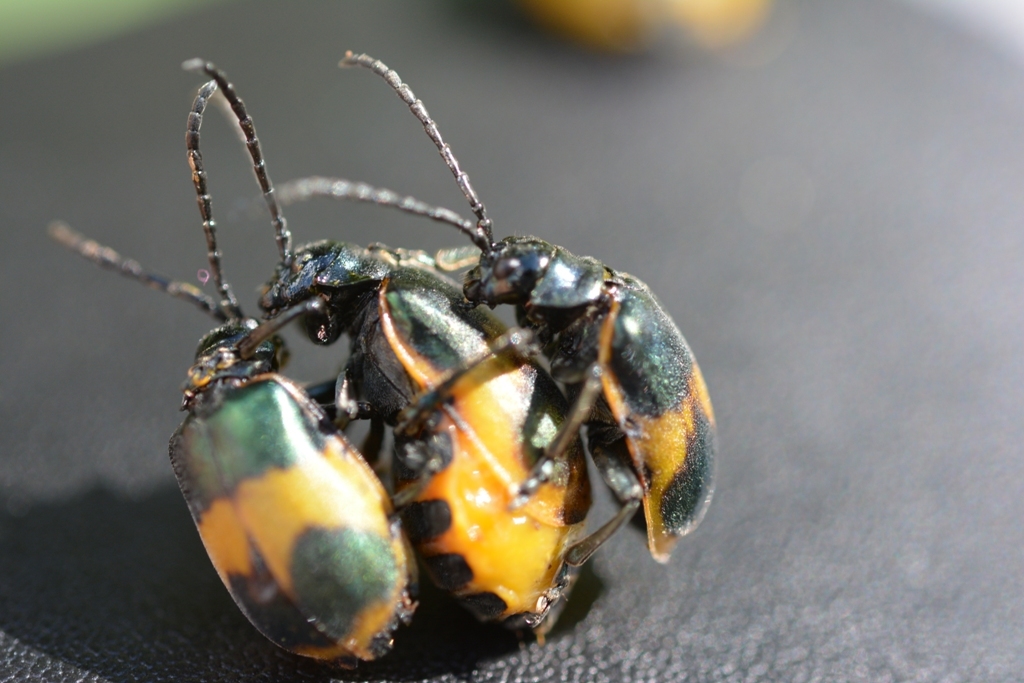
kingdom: Animalia
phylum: Arthropoda
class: Insecta
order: Coleoptera
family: Chrysomelidae
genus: Monocesta
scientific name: Monocesta
